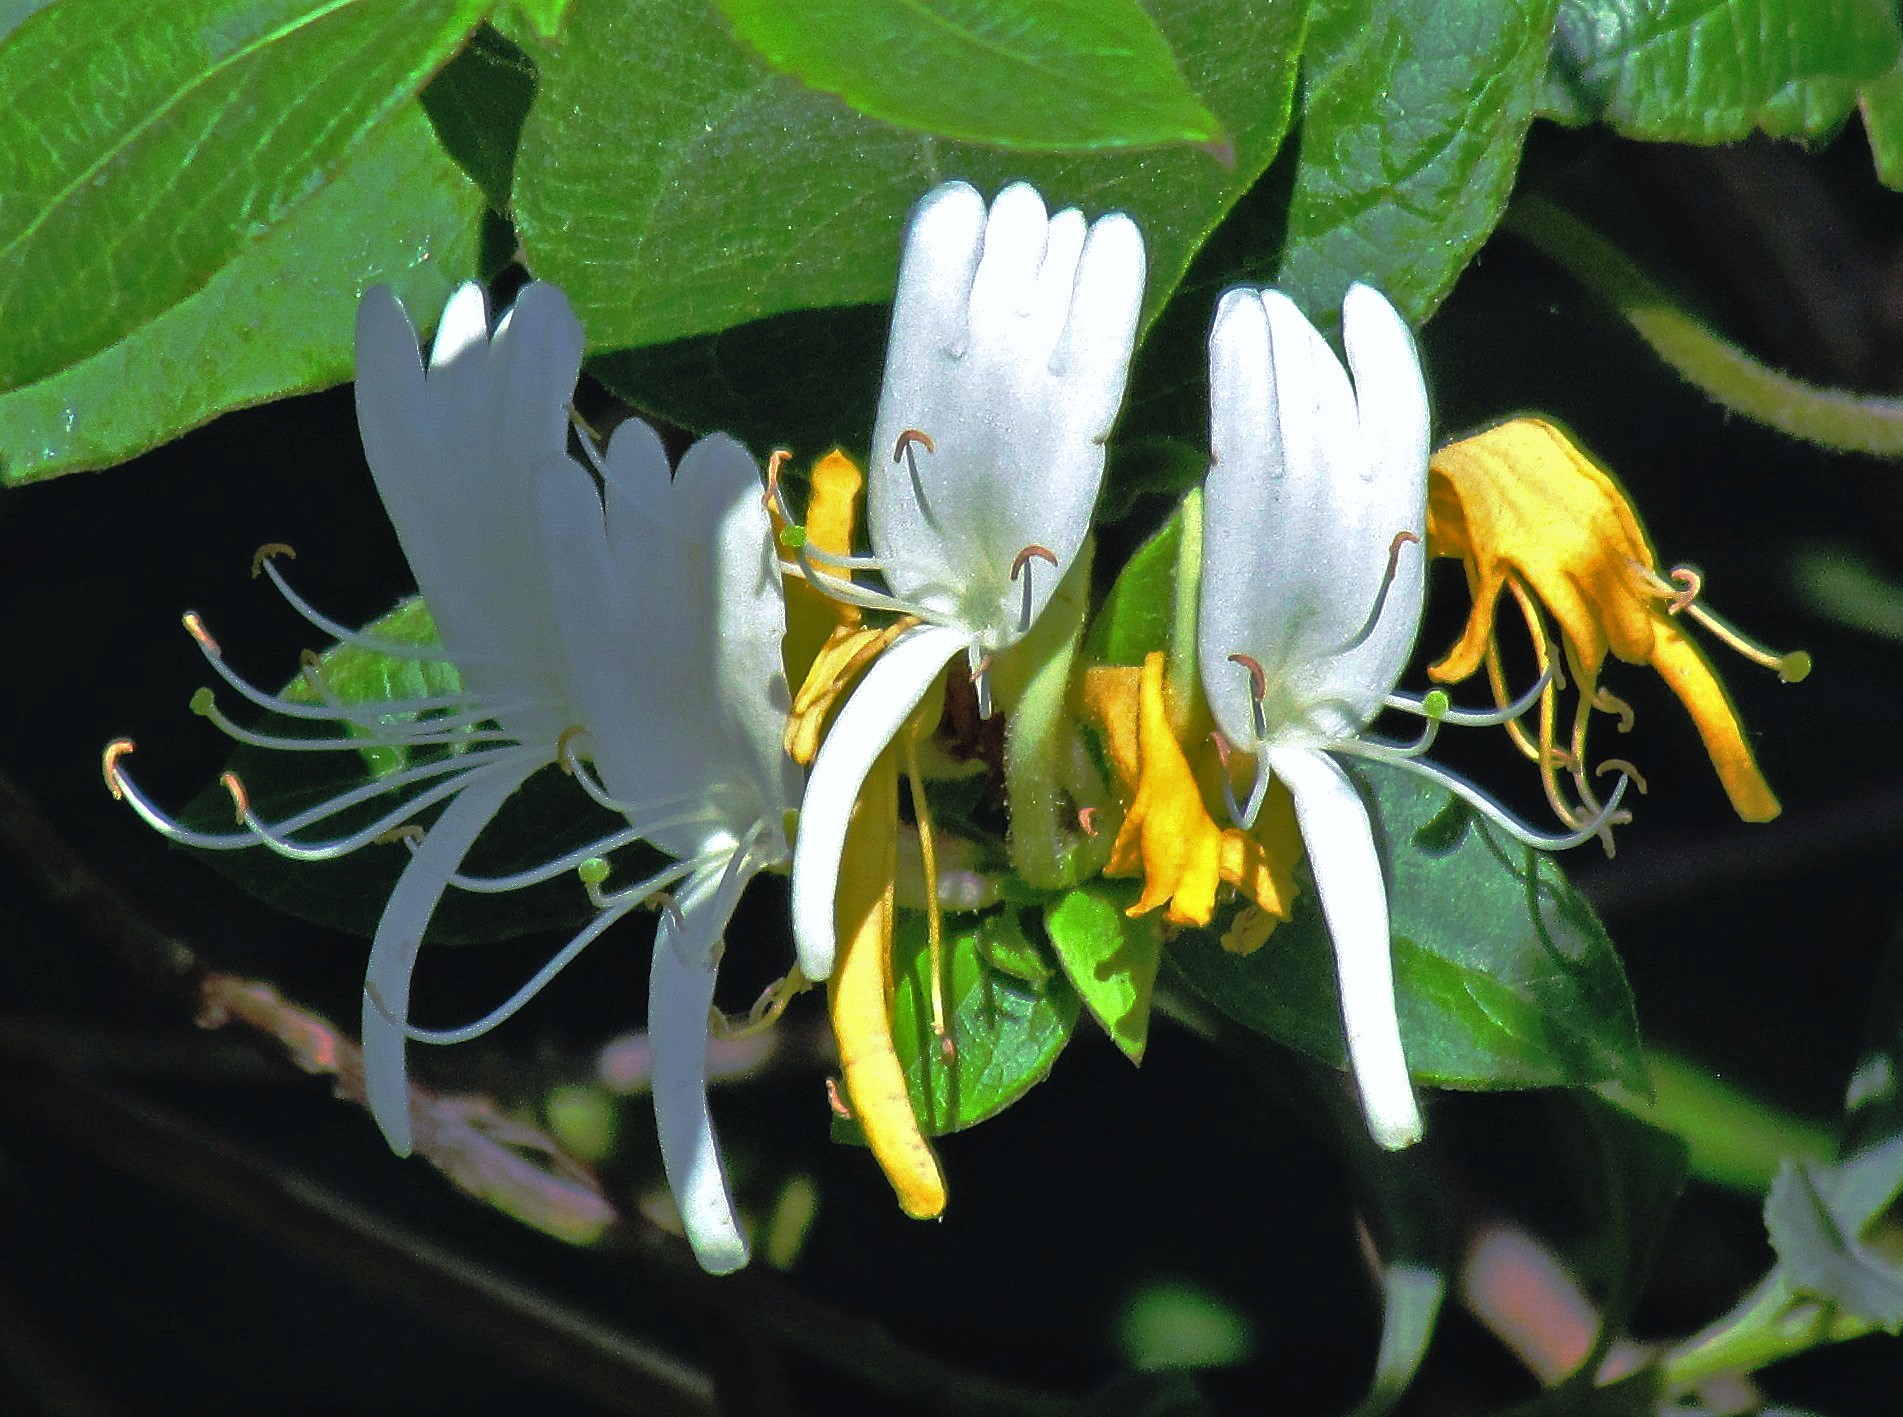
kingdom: Plantae
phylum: Tracheophyta
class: Magnoliopsida
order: Dipsacales
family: Caprifoliaceae
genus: Lonicera
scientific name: Lonicera japonica
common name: Japanese honeysuckle
